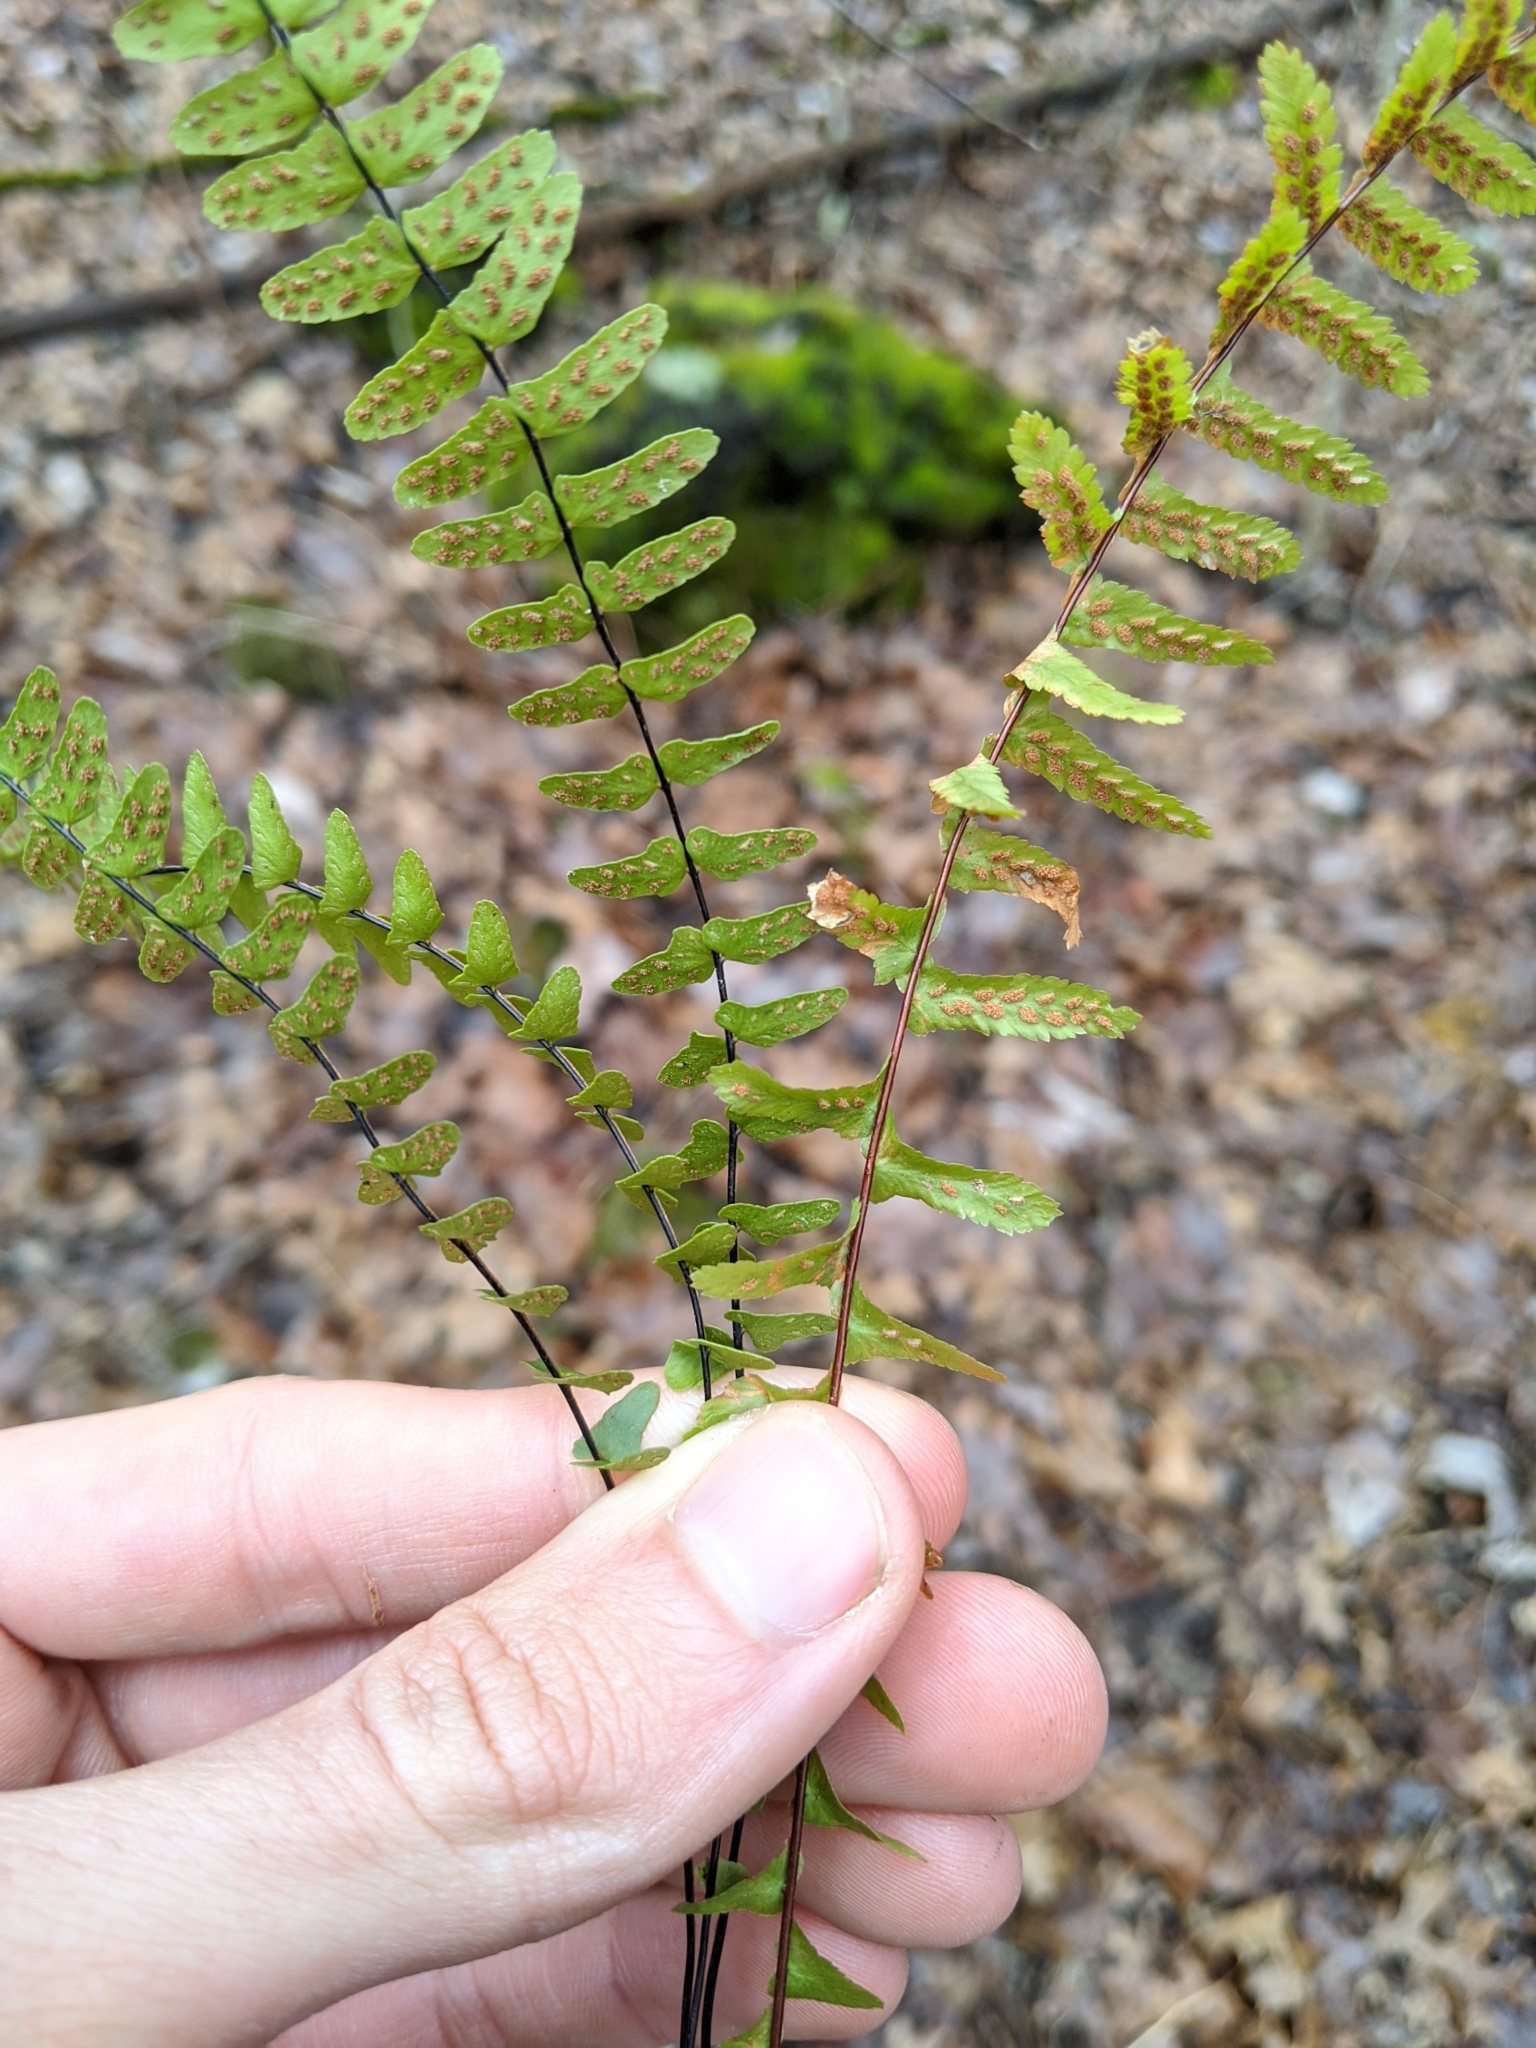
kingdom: Plantae
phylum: Tracheophyta
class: Polypodiopsida
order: Polypodiales
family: Aspleniaceae
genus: Asplenium
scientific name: Asplenium resiliens
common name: Blackstem spleenwort
